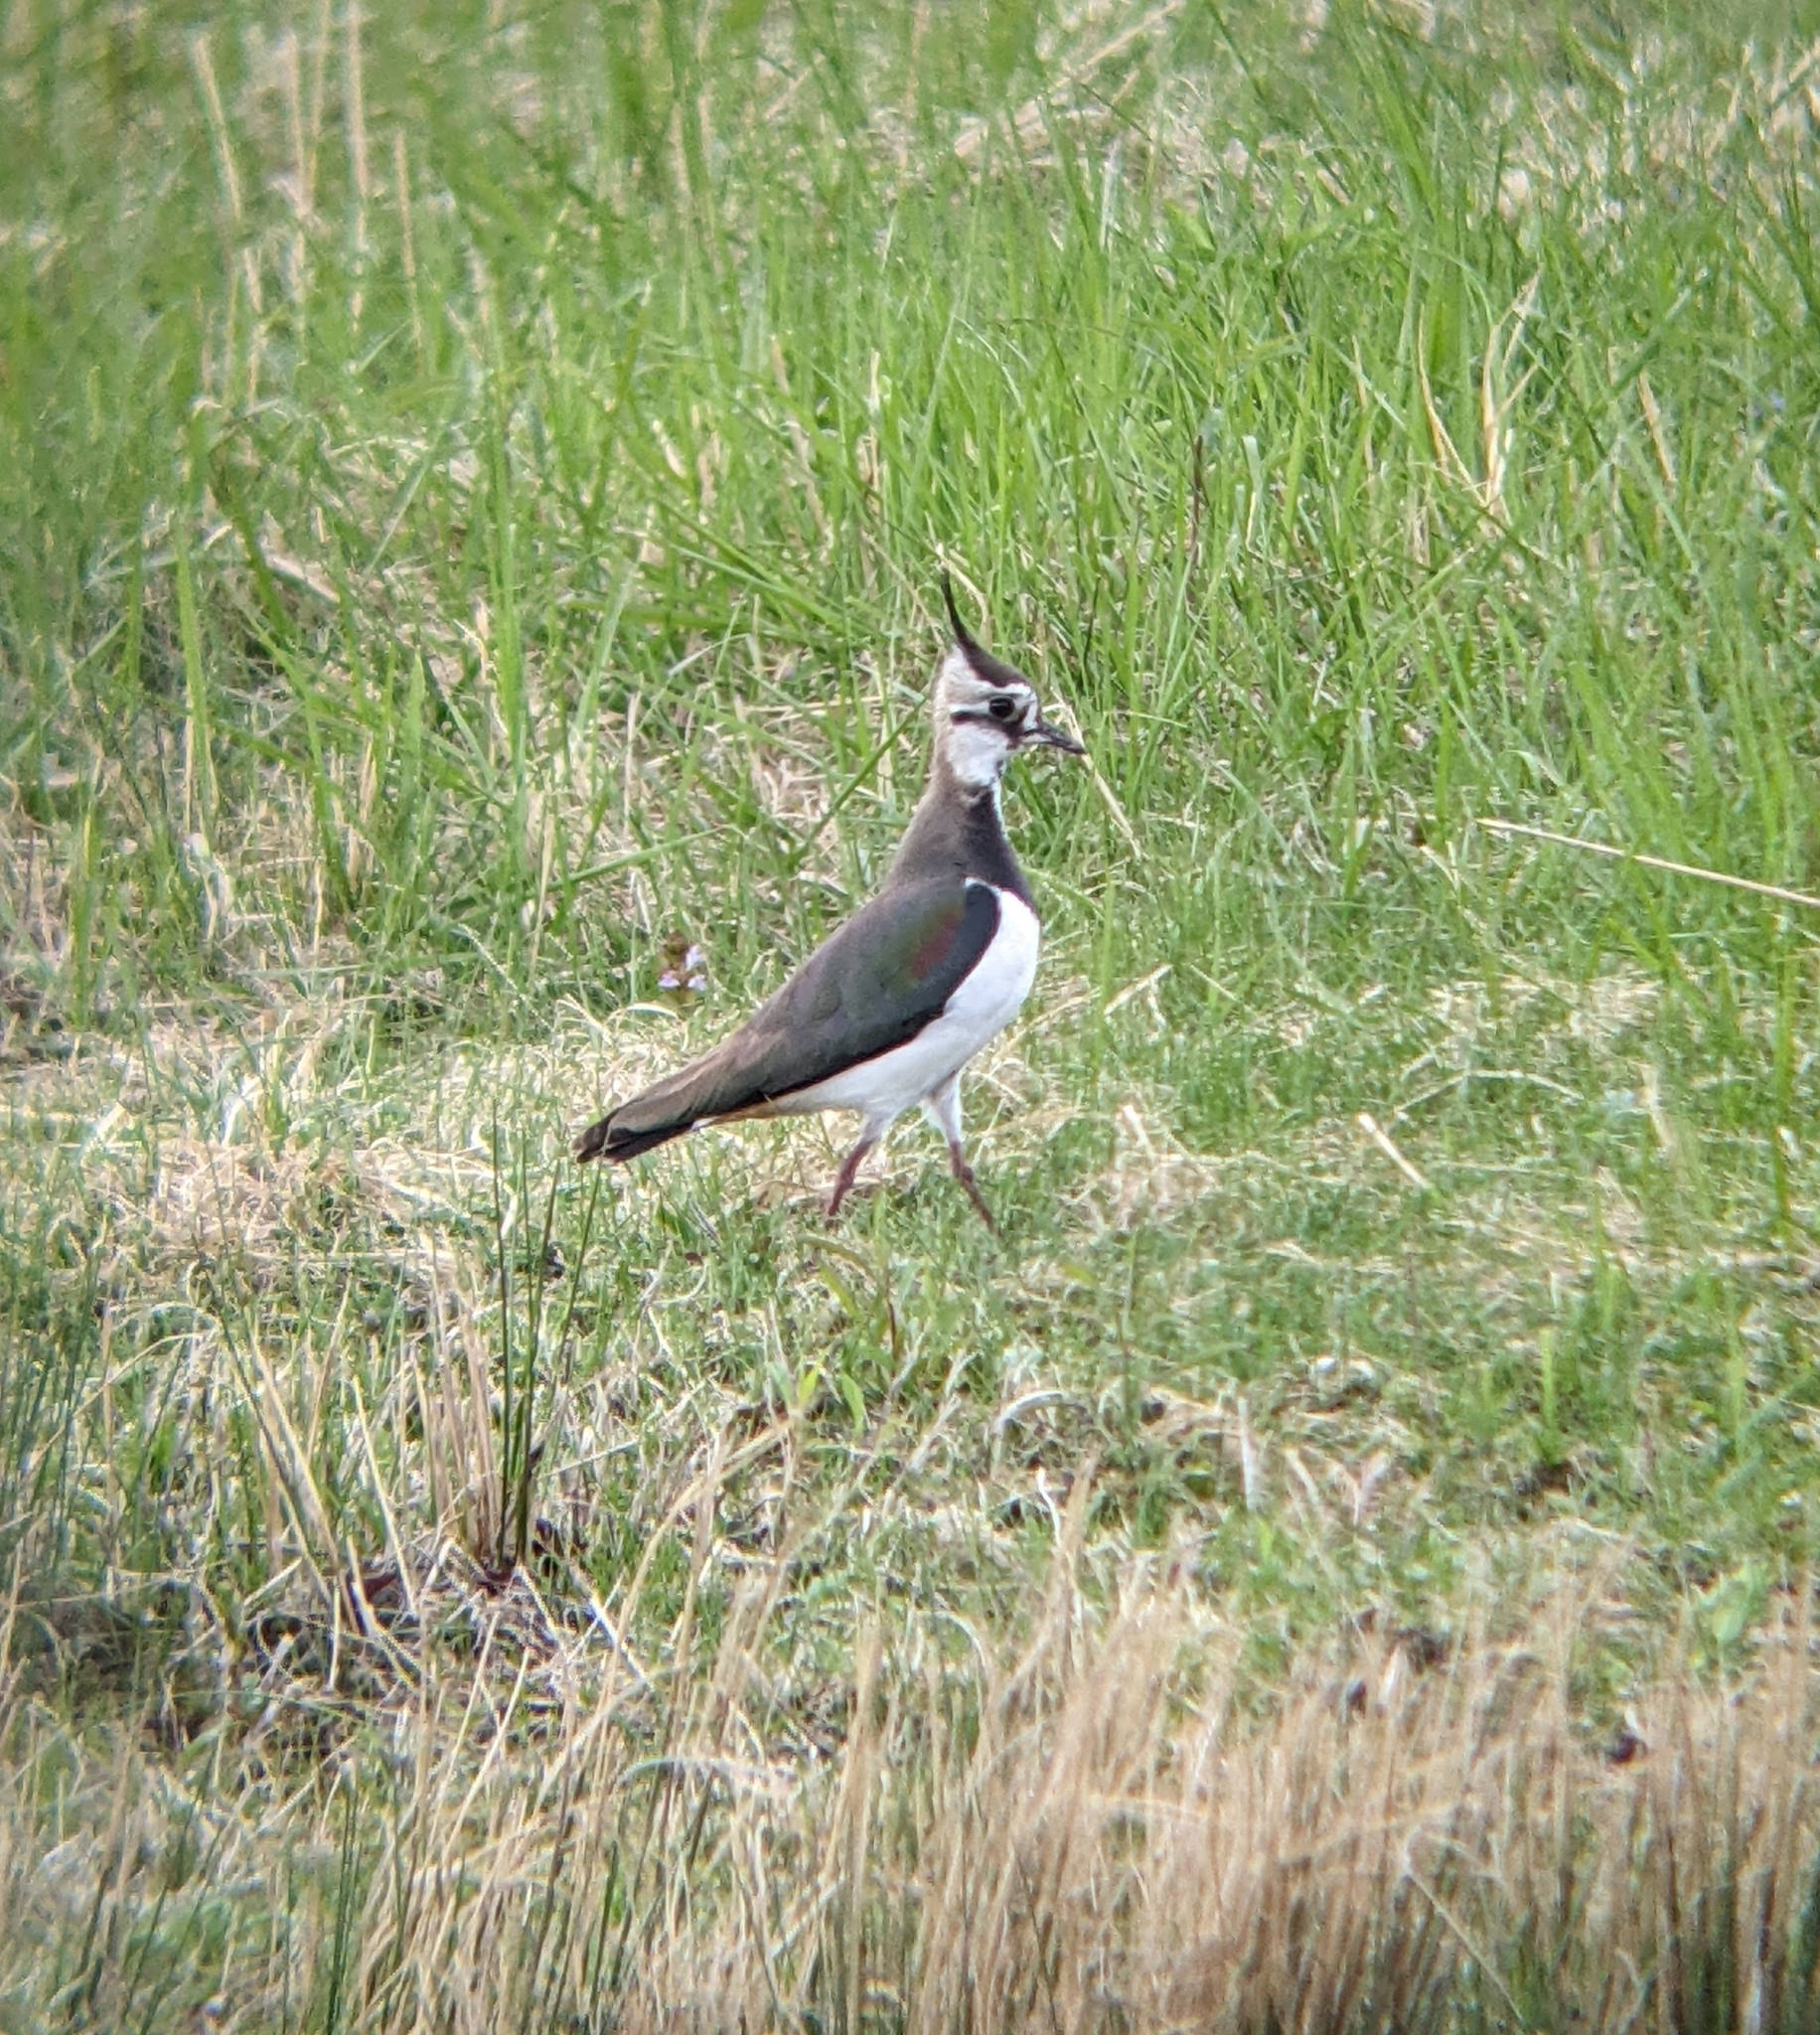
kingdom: Animalia
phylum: Chordata
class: Aves
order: Charadriiformes
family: Charadriidae
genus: Vanellus
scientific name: Vanellus vanellus
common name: Northern lapwing
